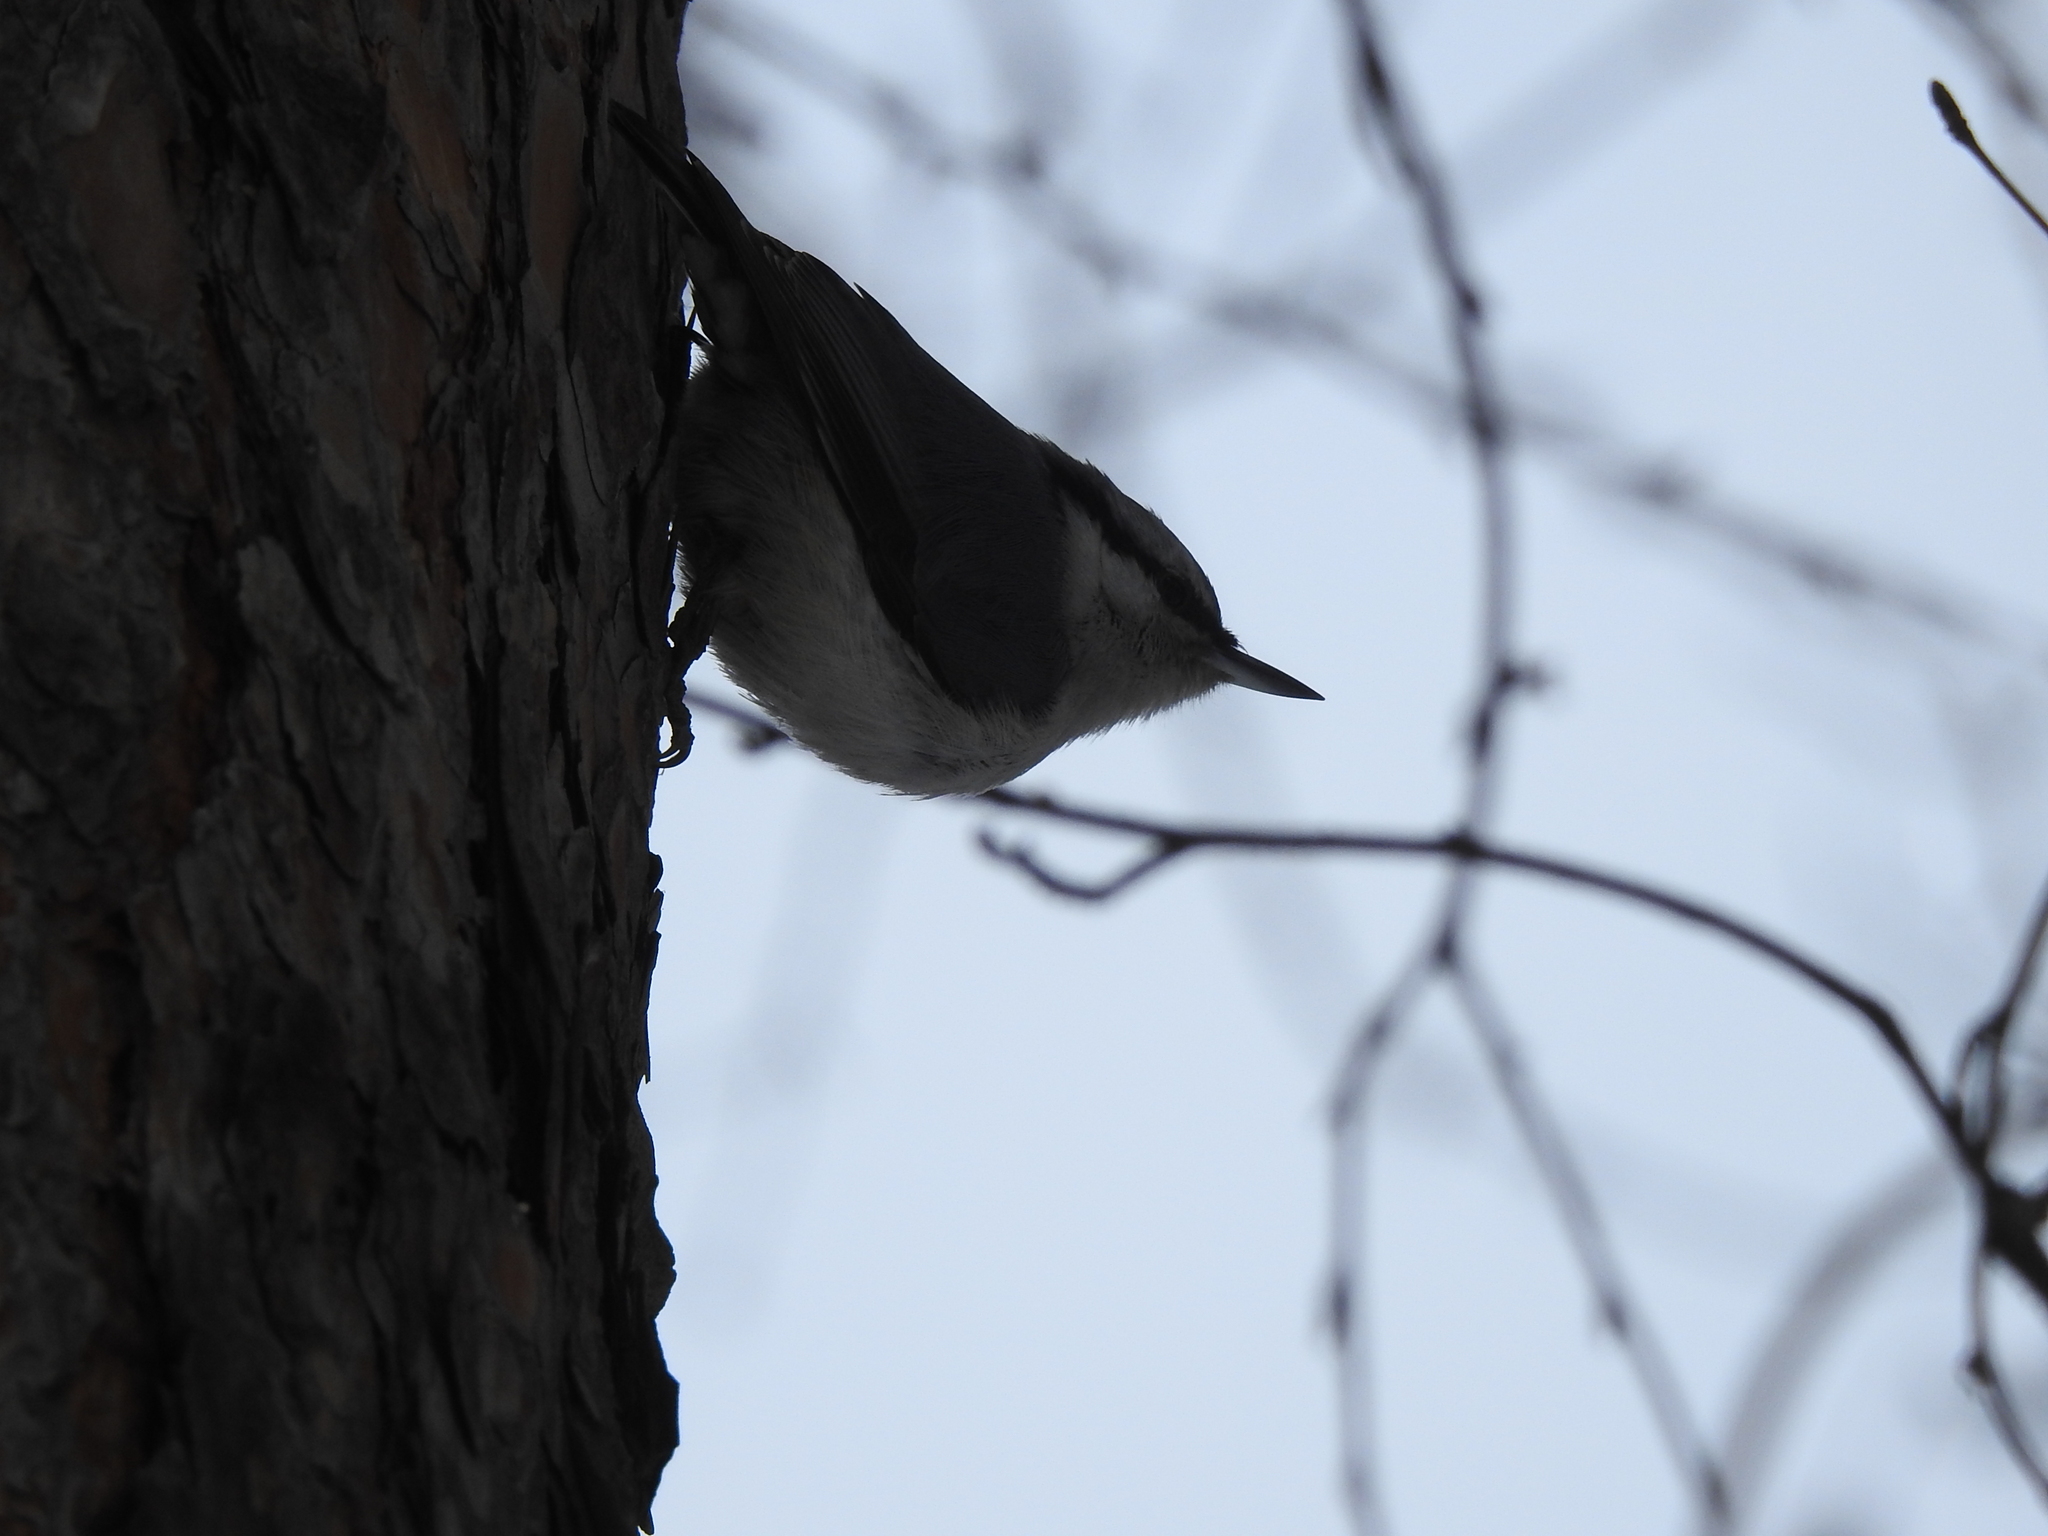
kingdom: Animalia
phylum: Chordata
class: Aves
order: Passeriformes
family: Sittidae
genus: Sitta
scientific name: Sitta europaea
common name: Eurasian nuthatch
